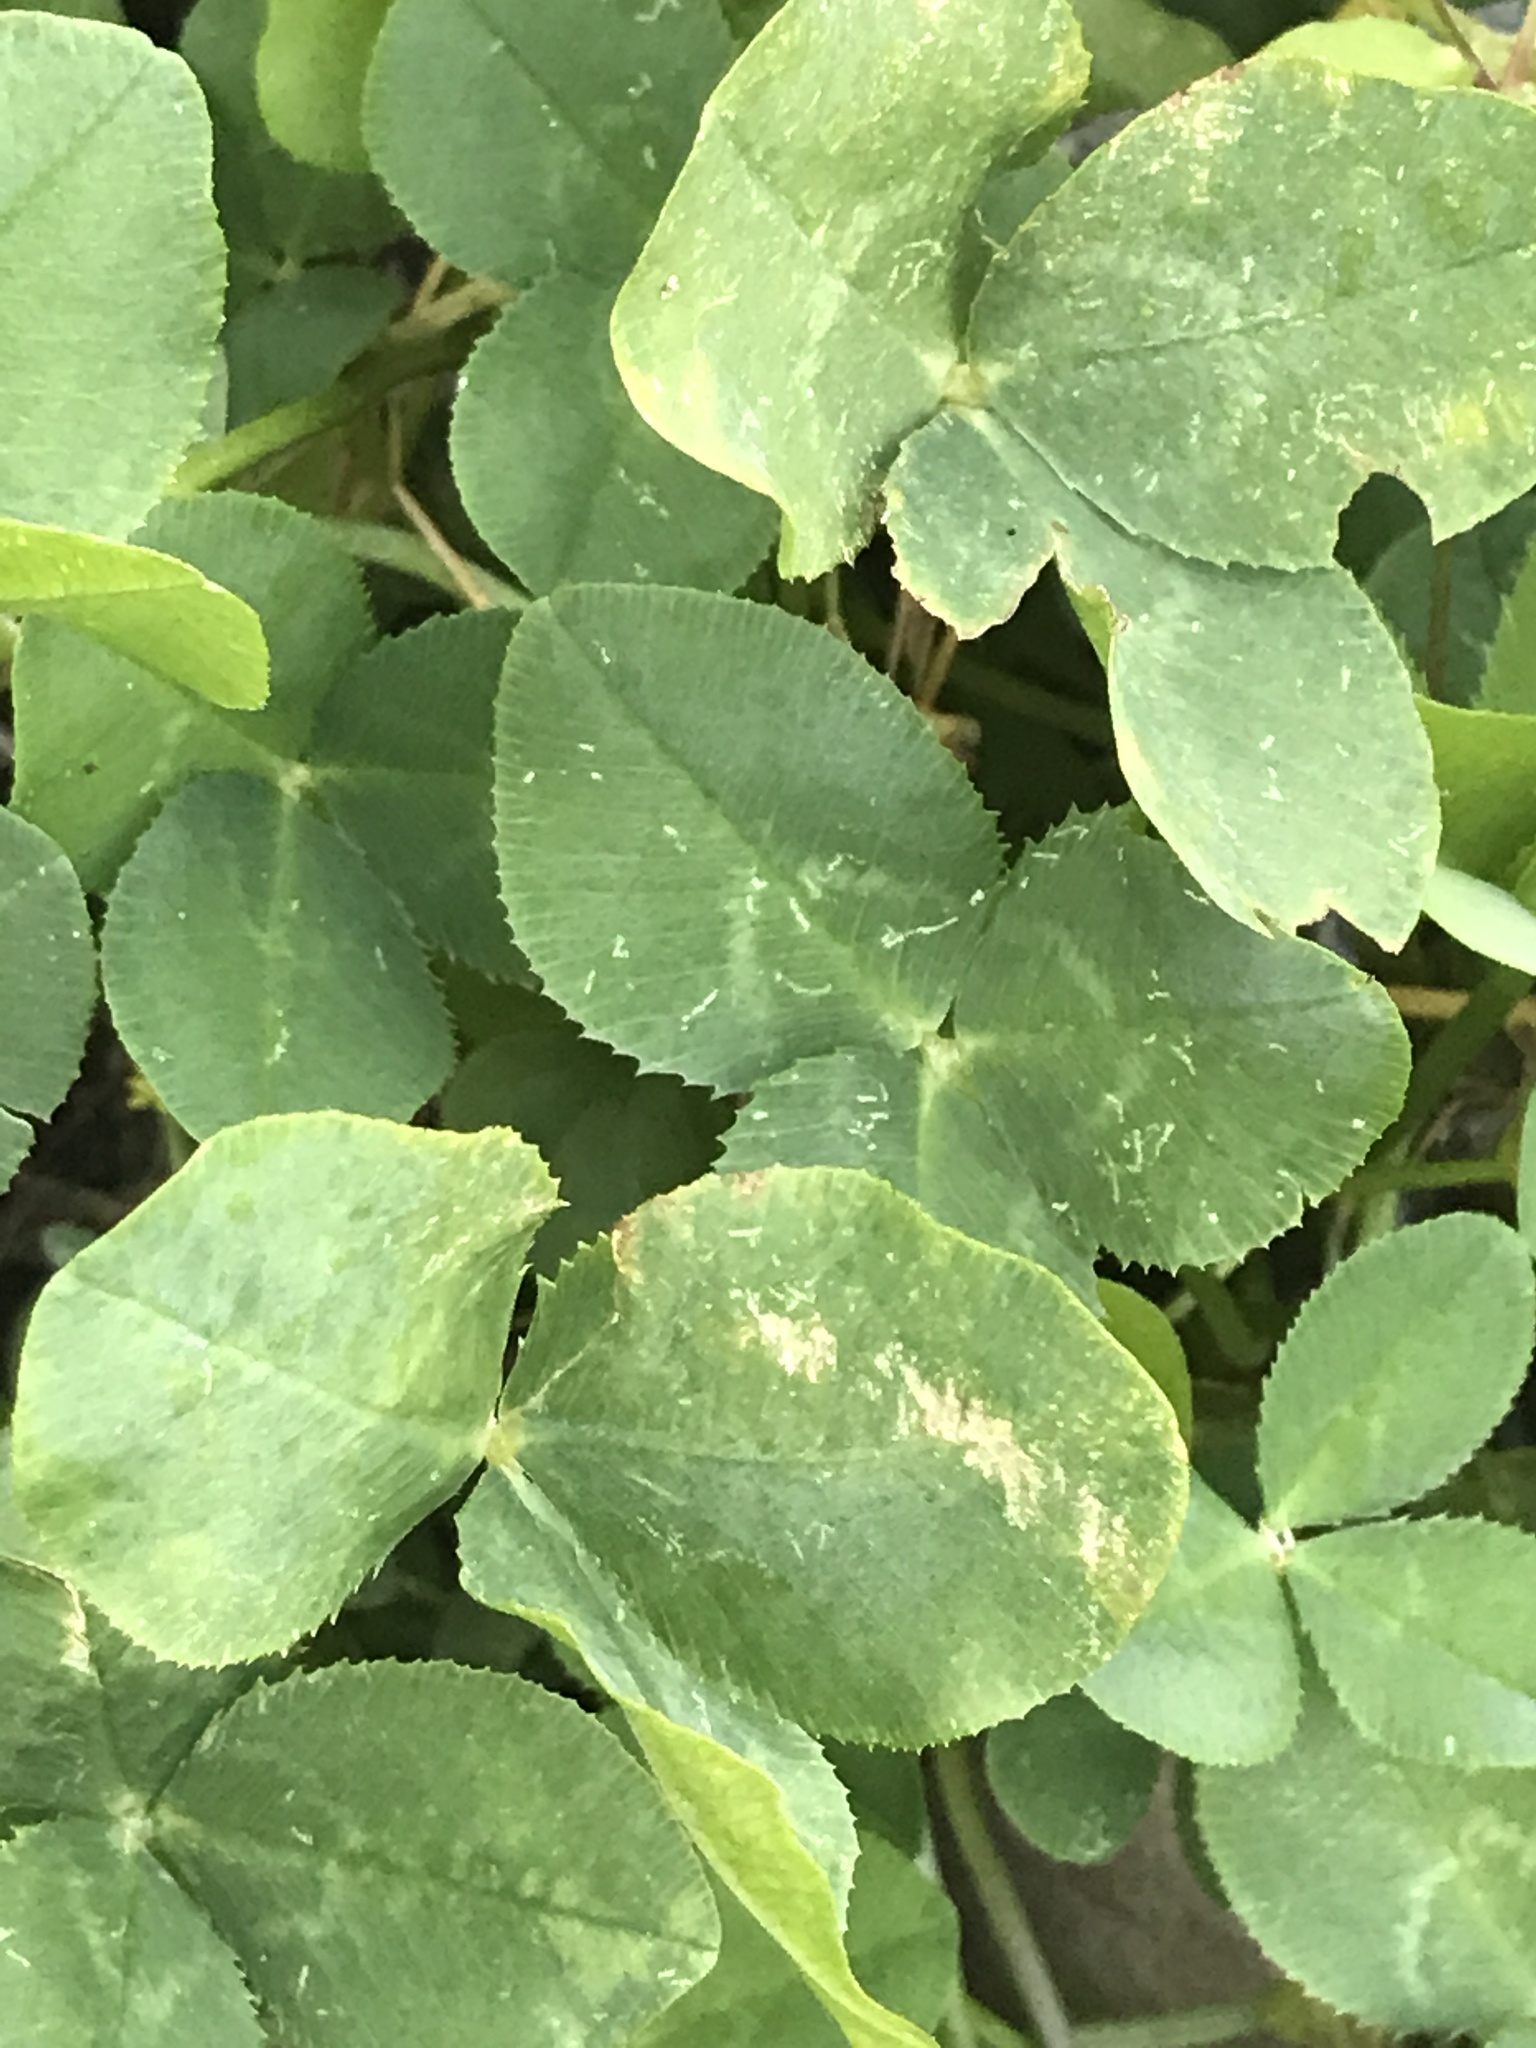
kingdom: Plantae
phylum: Tracheophyta
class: Magnoliopsida
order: Fabales
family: Fabaceae
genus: Trifolium
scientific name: Trifolium repens
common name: White clover
